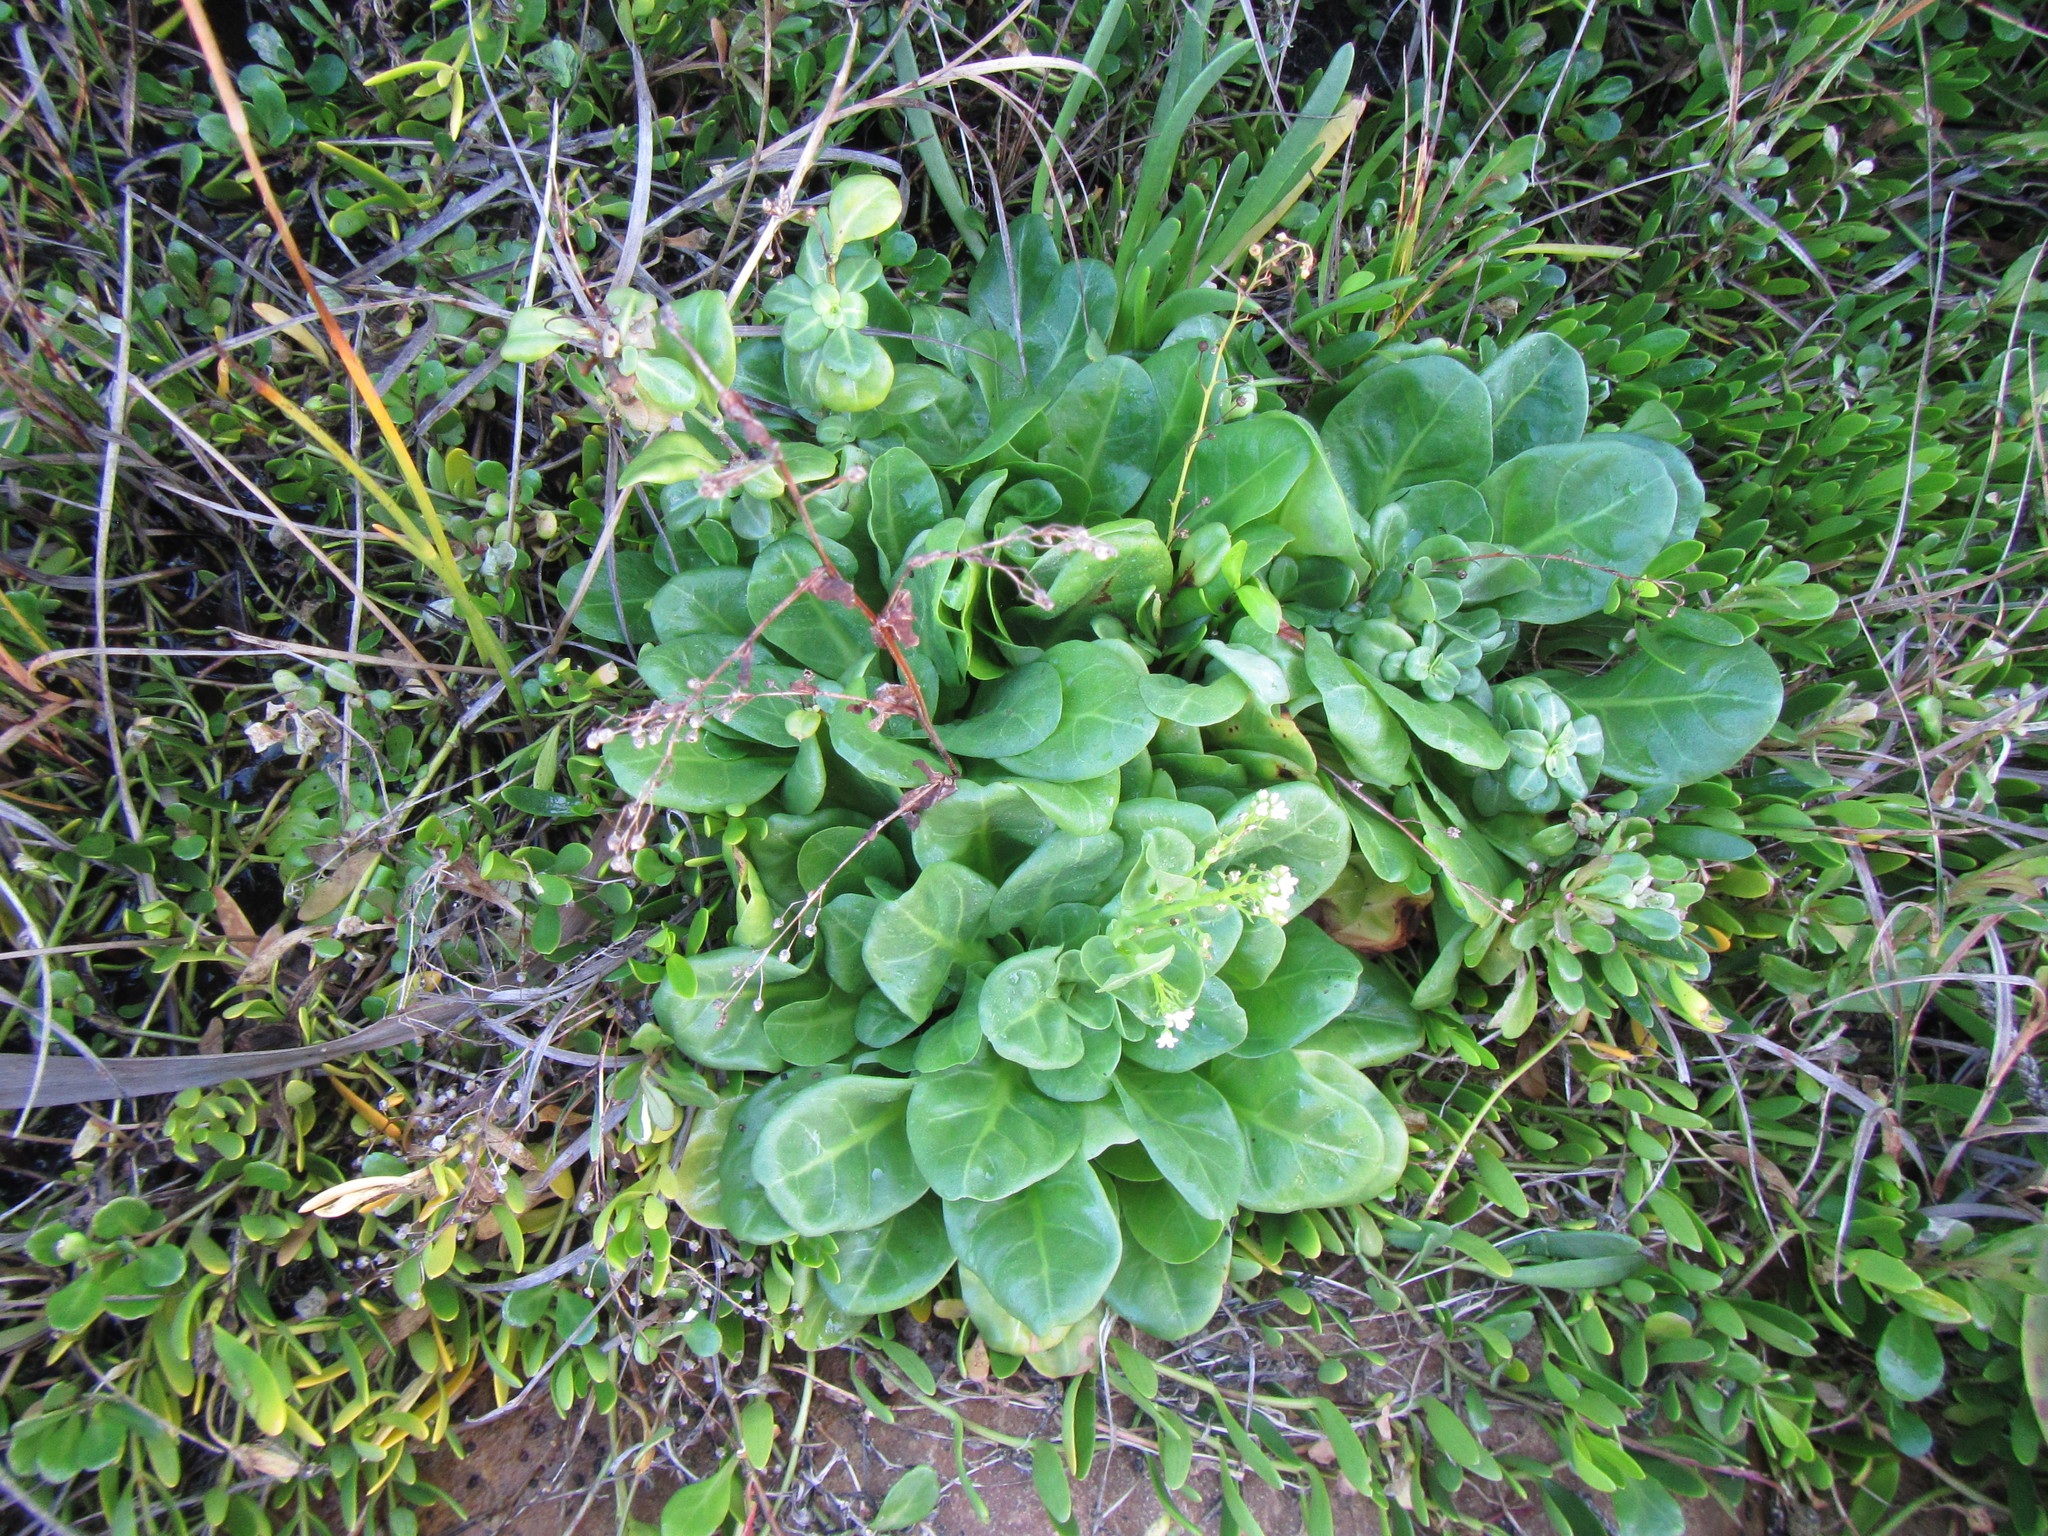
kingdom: Plantae
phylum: Tracheophyta
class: Magnoliopsida
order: Ericales
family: Primulaceae
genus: Samolus
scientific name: Samolus valerandi
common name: Brookweed
